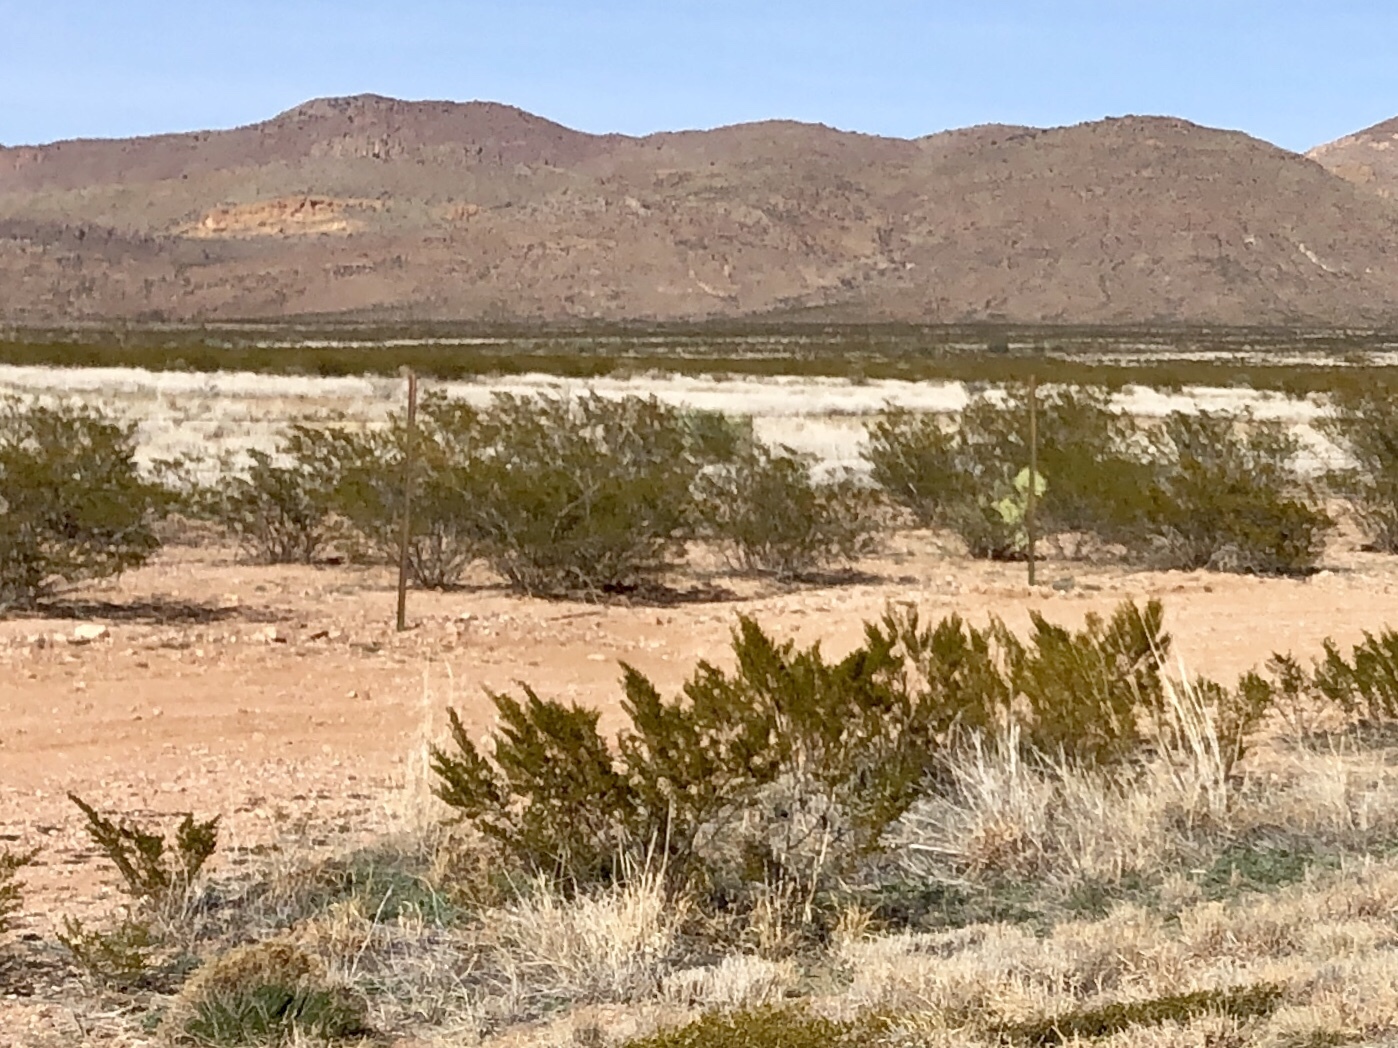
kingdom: Plantae
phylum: Tracheophyta
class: Magnoliopsida
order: Zygophyllales
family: Zygophyllaceae
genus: Larrea
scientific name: Larrea tridentata
